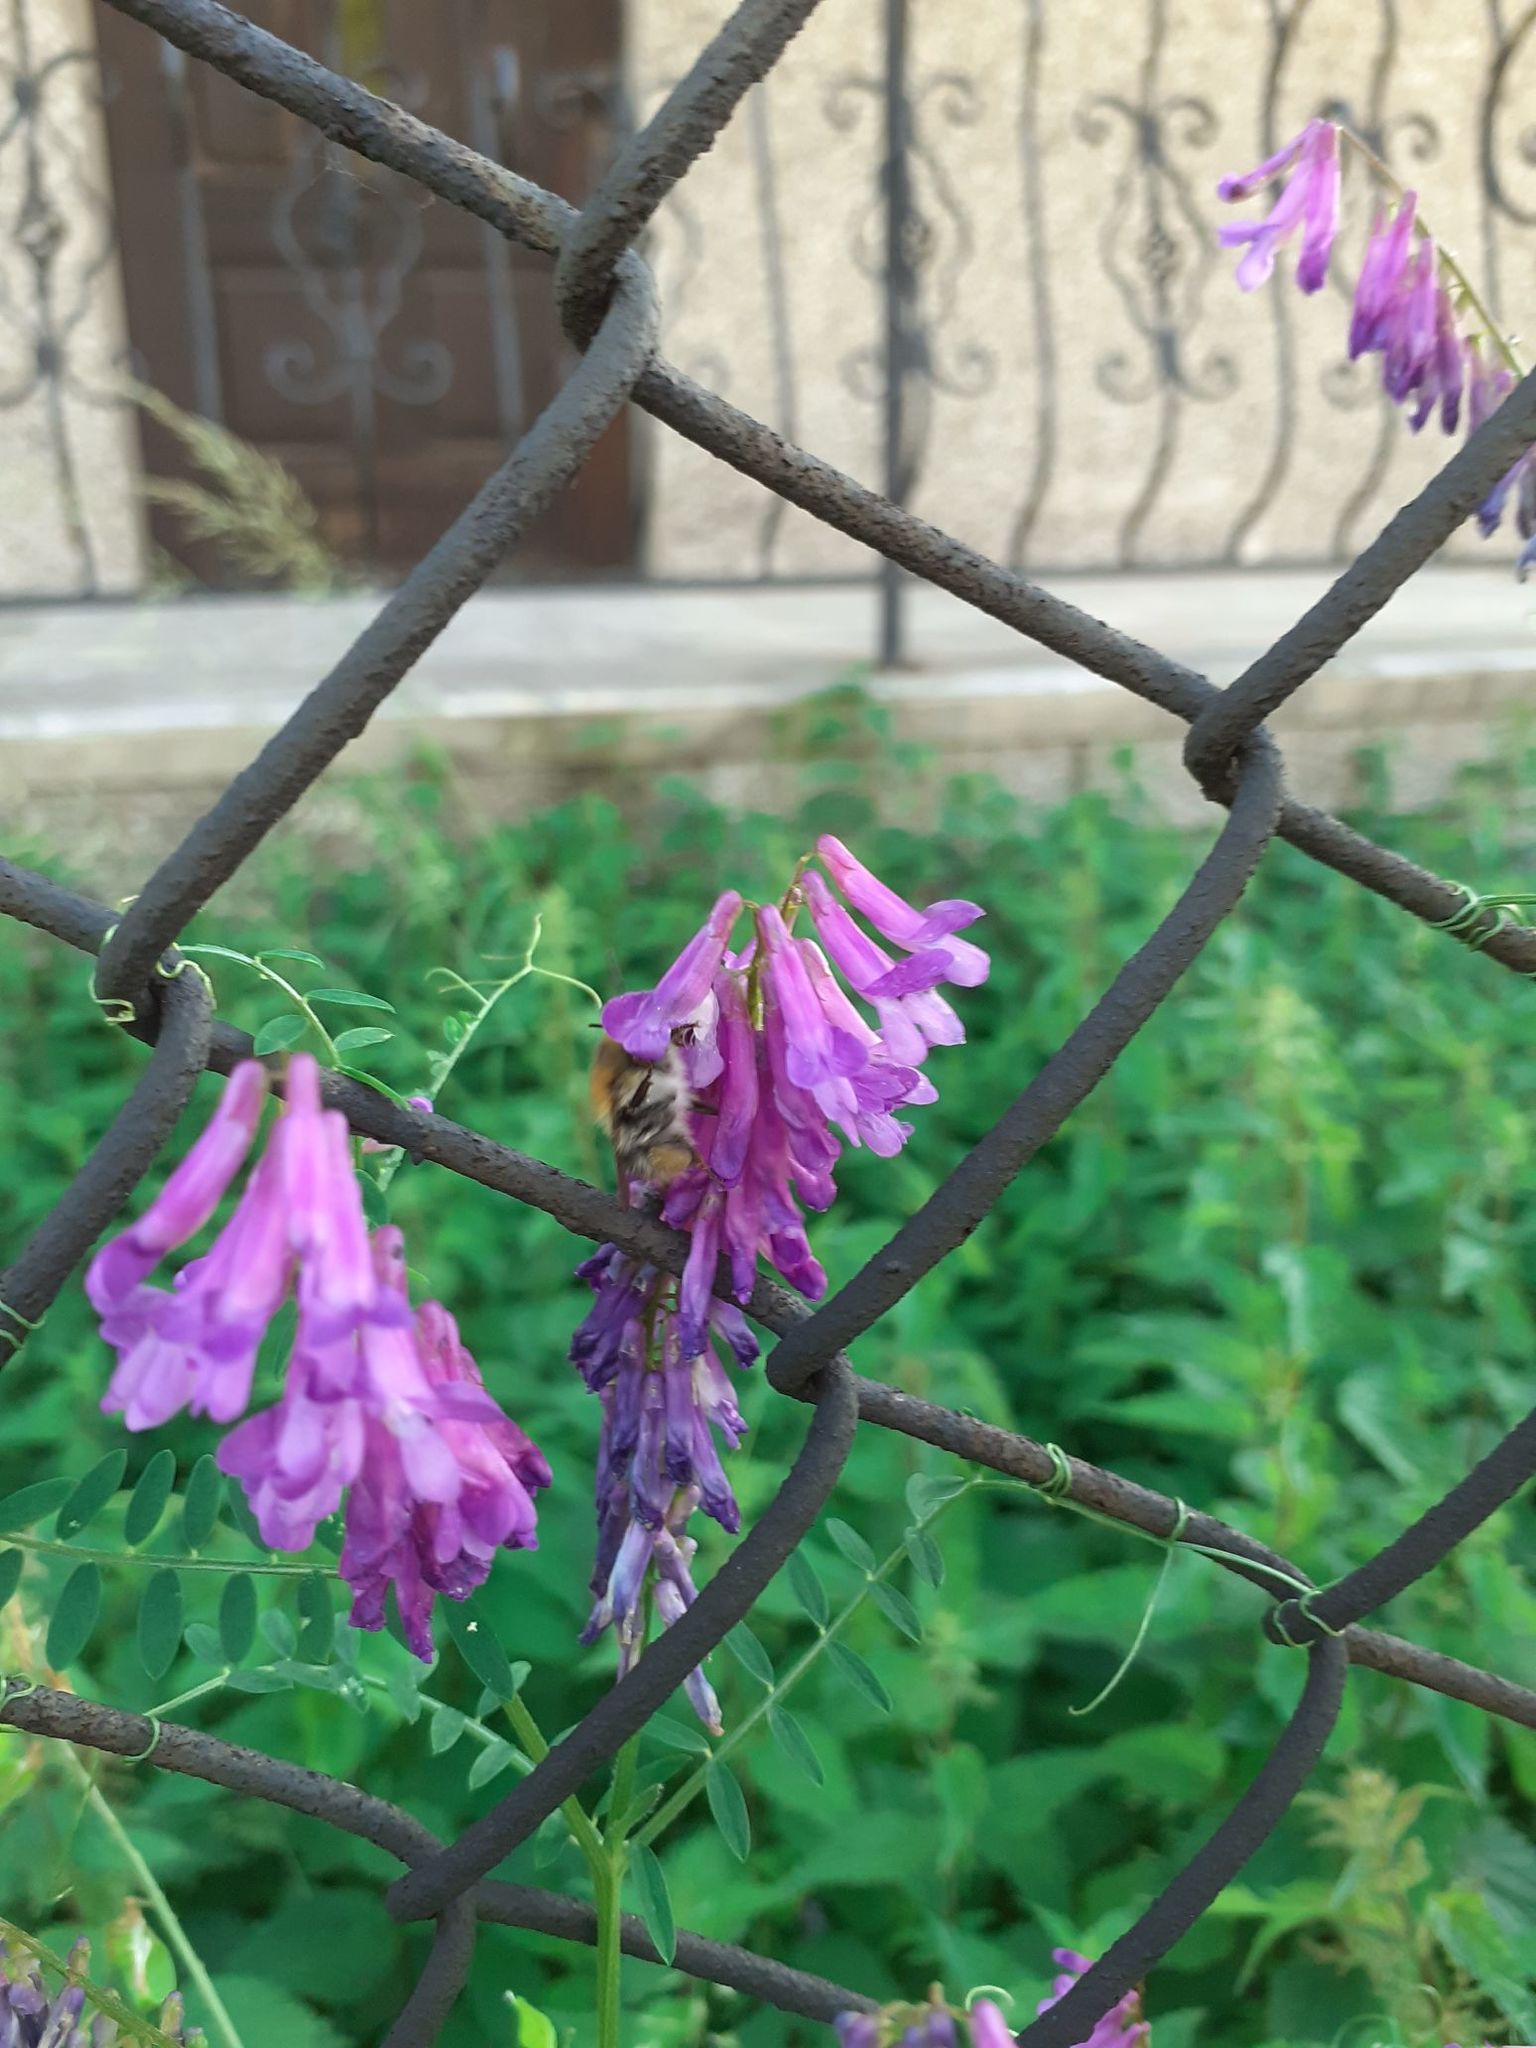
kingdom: Plantae
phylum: Tracheophyta
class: Magnoliopsida
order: Fabales
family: Fabaceae
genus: Vicia
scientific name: Vicia villosa
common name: Fodder vetch
